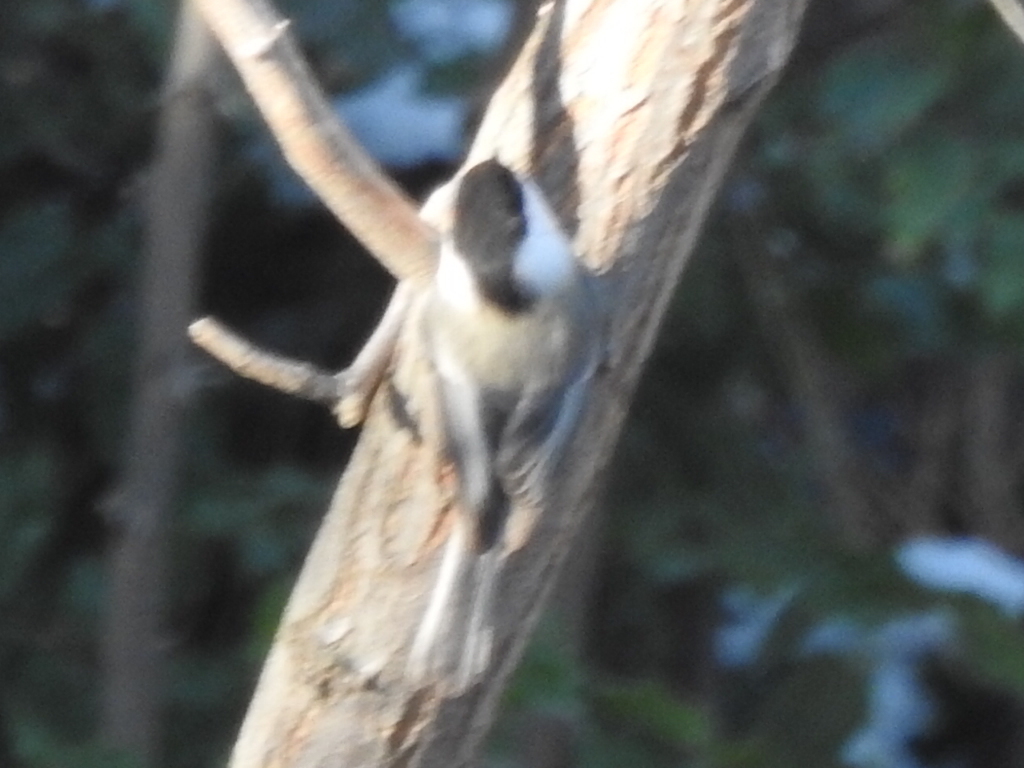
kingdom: Animalia
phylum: Chordata
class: Aves
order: Passeriformes
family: Paridae
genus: Poecile
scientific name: Poecile atricapillus
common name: Black-capped chickadee
